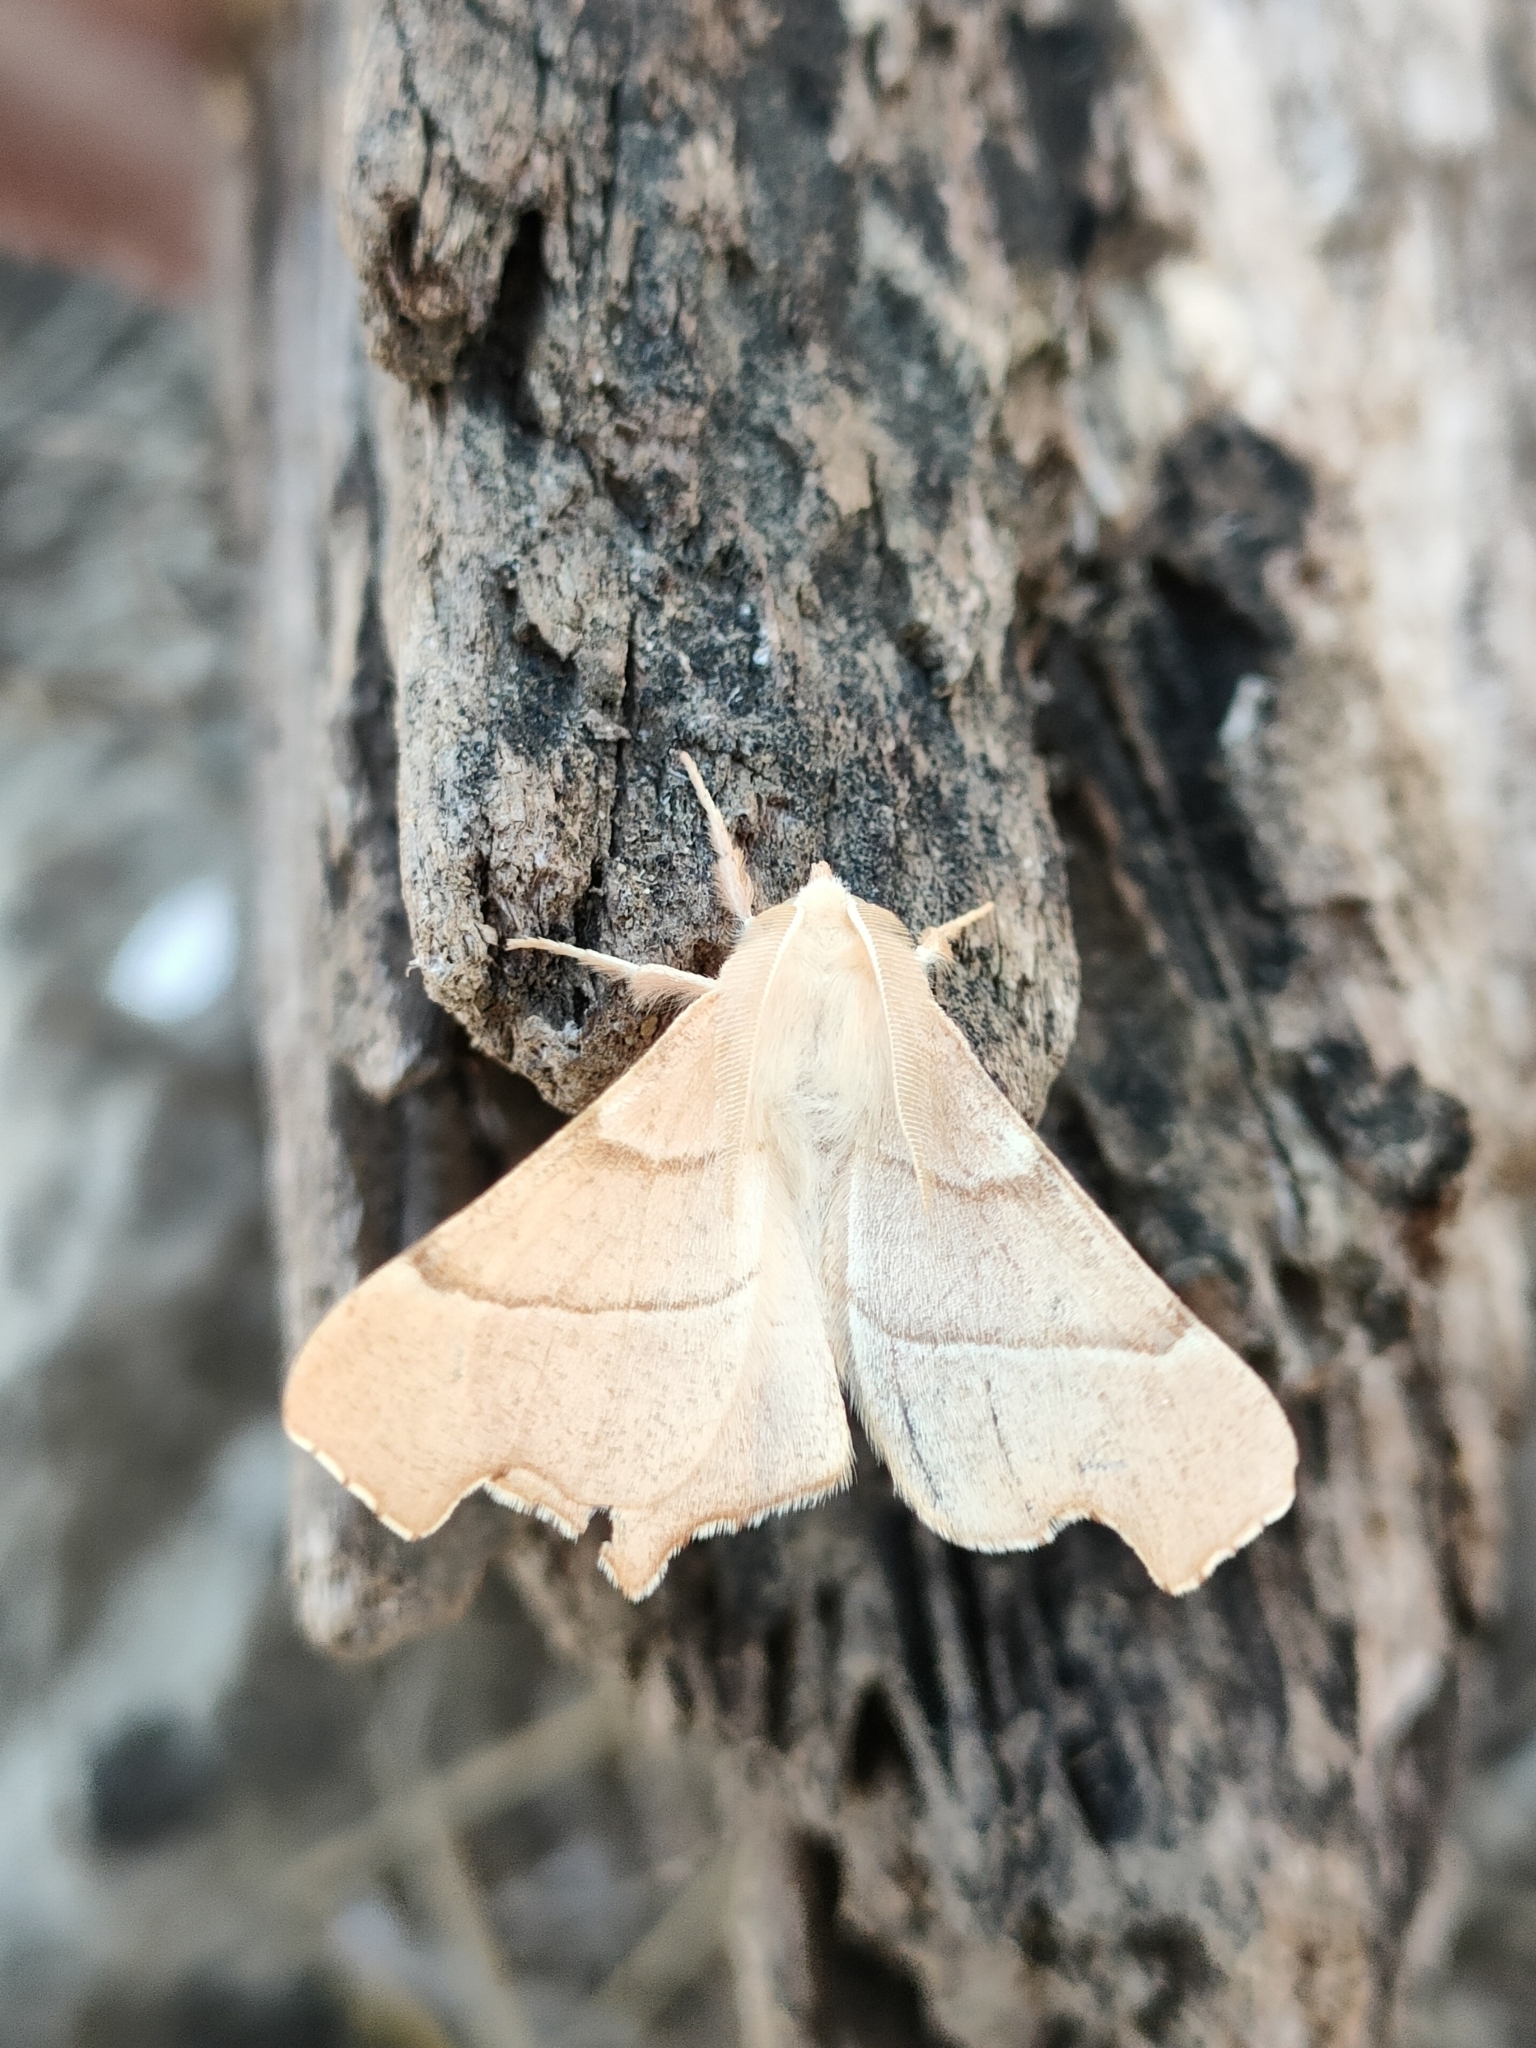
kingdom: Animalia
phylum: Arthropoda
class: Insecta
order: Lepidoptera
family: Geometridae
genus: Ennomos
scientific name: Ennomos quercaria
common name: Clouded august thorn
